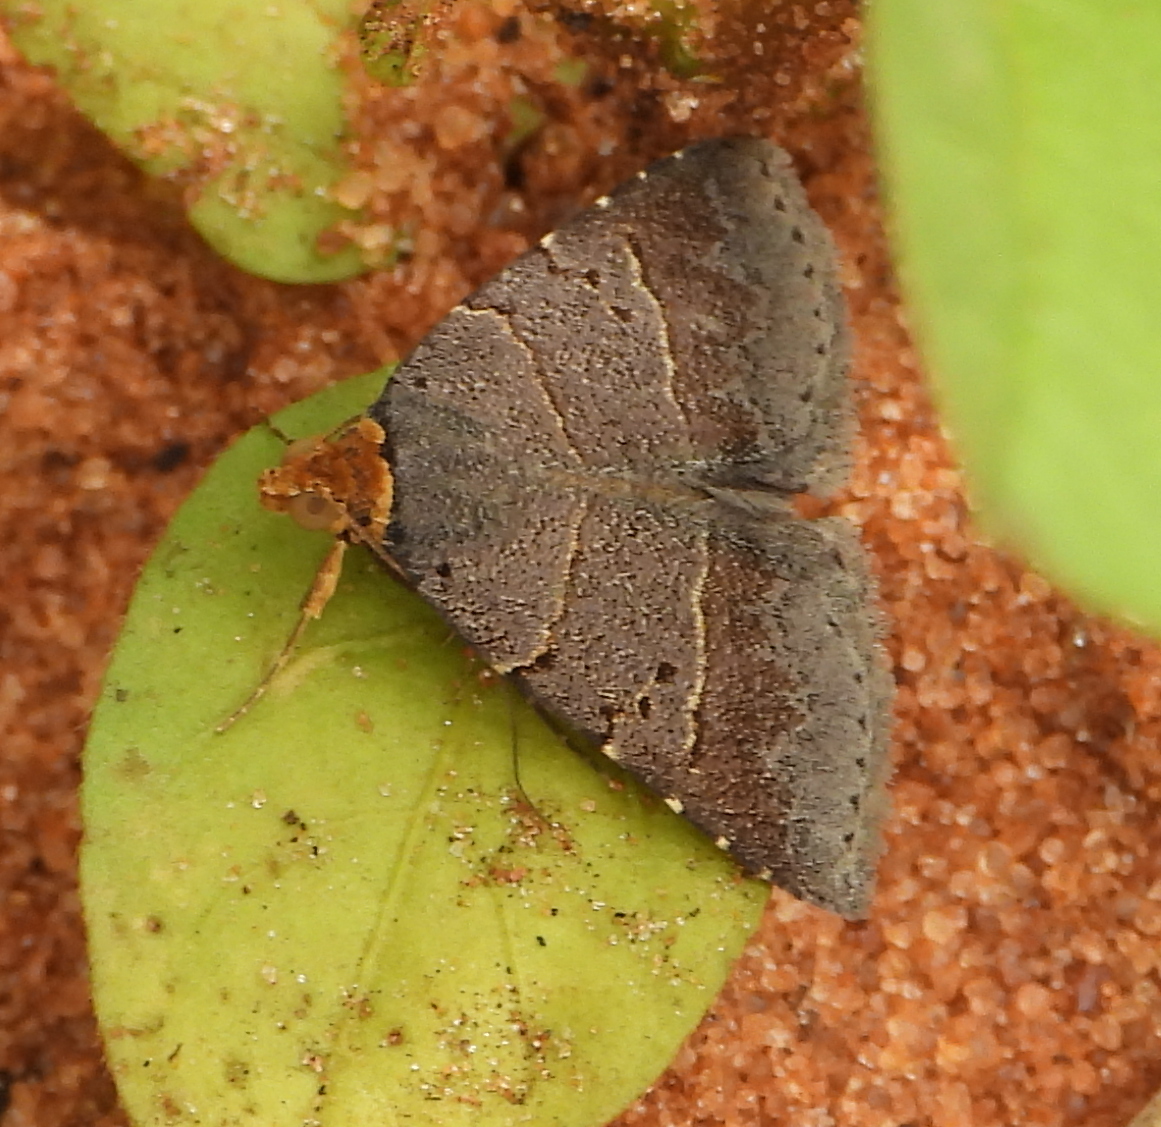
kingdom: Animalia
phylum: Arthropoda
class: Insecta
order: Lepidoptera
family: Erebidae
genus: Plecoptera
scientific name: Plecoptera melalepis
